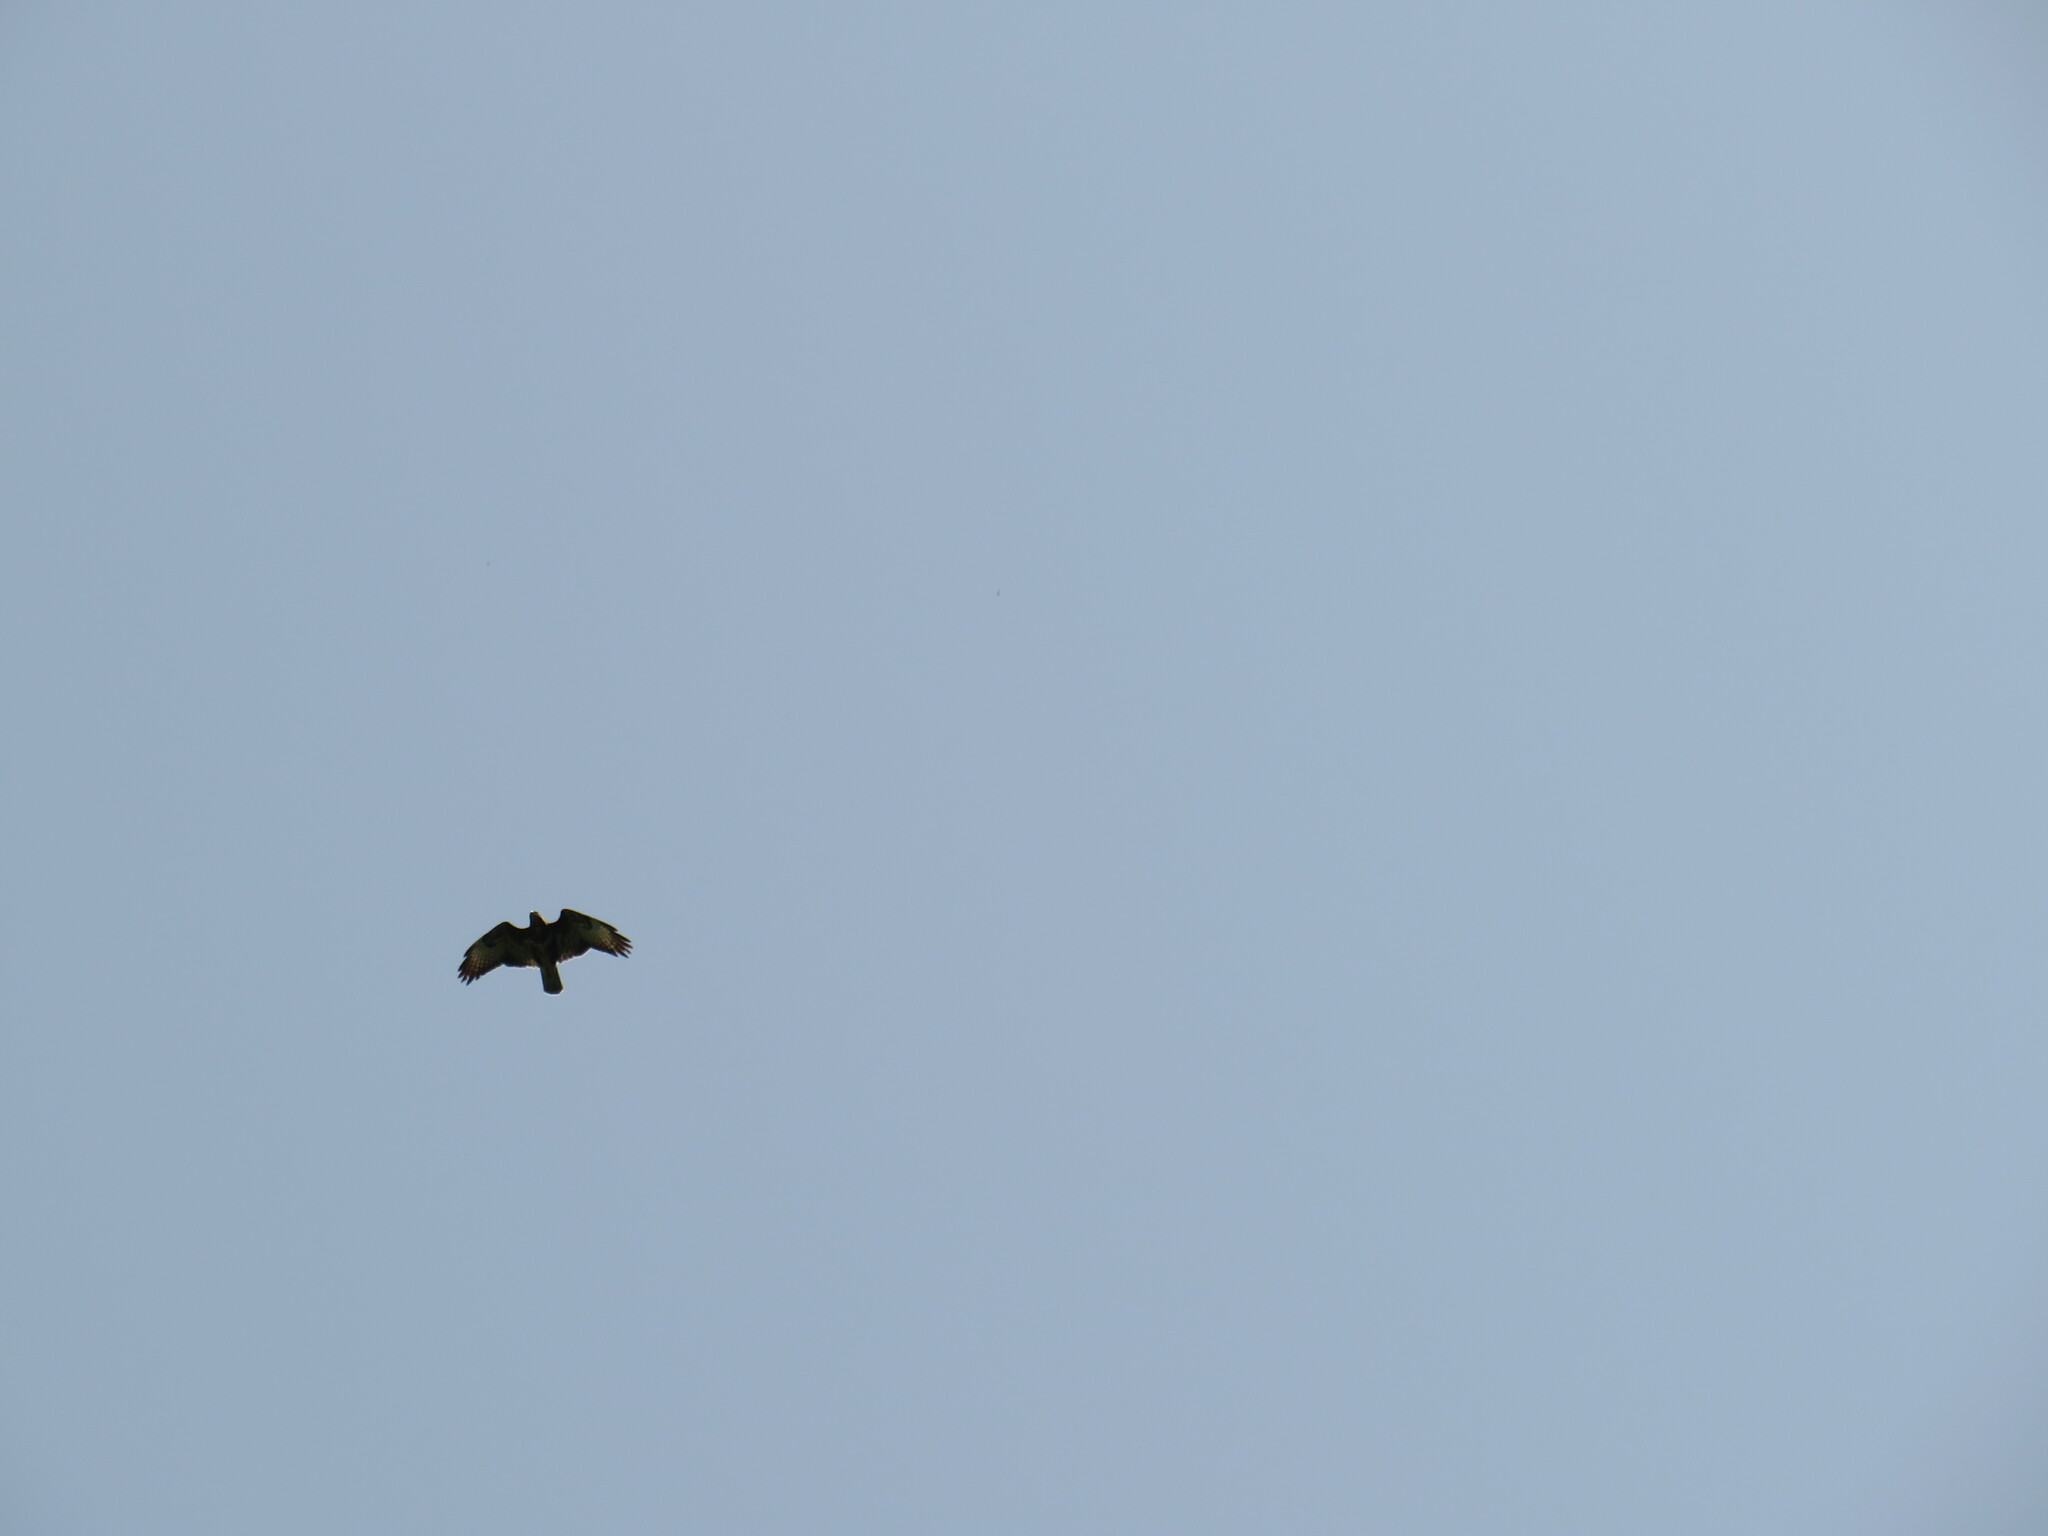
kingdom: Animalia
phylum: Chordata
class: Aves
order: Accipitriformes
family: Accipitridae
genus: Buteo
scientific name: Buteo buteo
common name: Common buzzard
